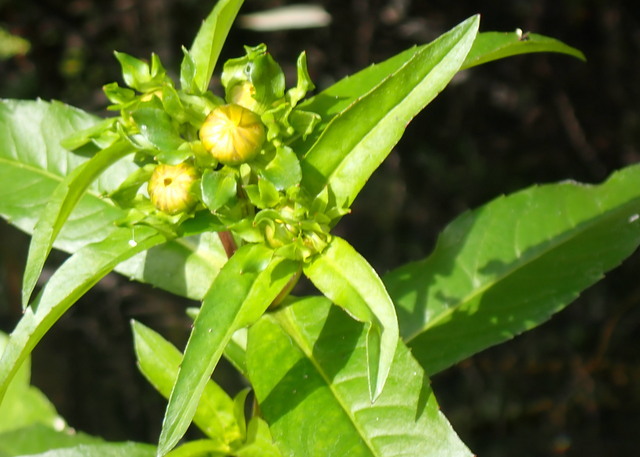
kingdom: Plantae
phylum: Tracheophyta
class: Magnoliopsida
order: Asterales
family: Asteraceae
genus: Bidens
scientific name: Bidens laevis
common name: Larger bur-marigold
